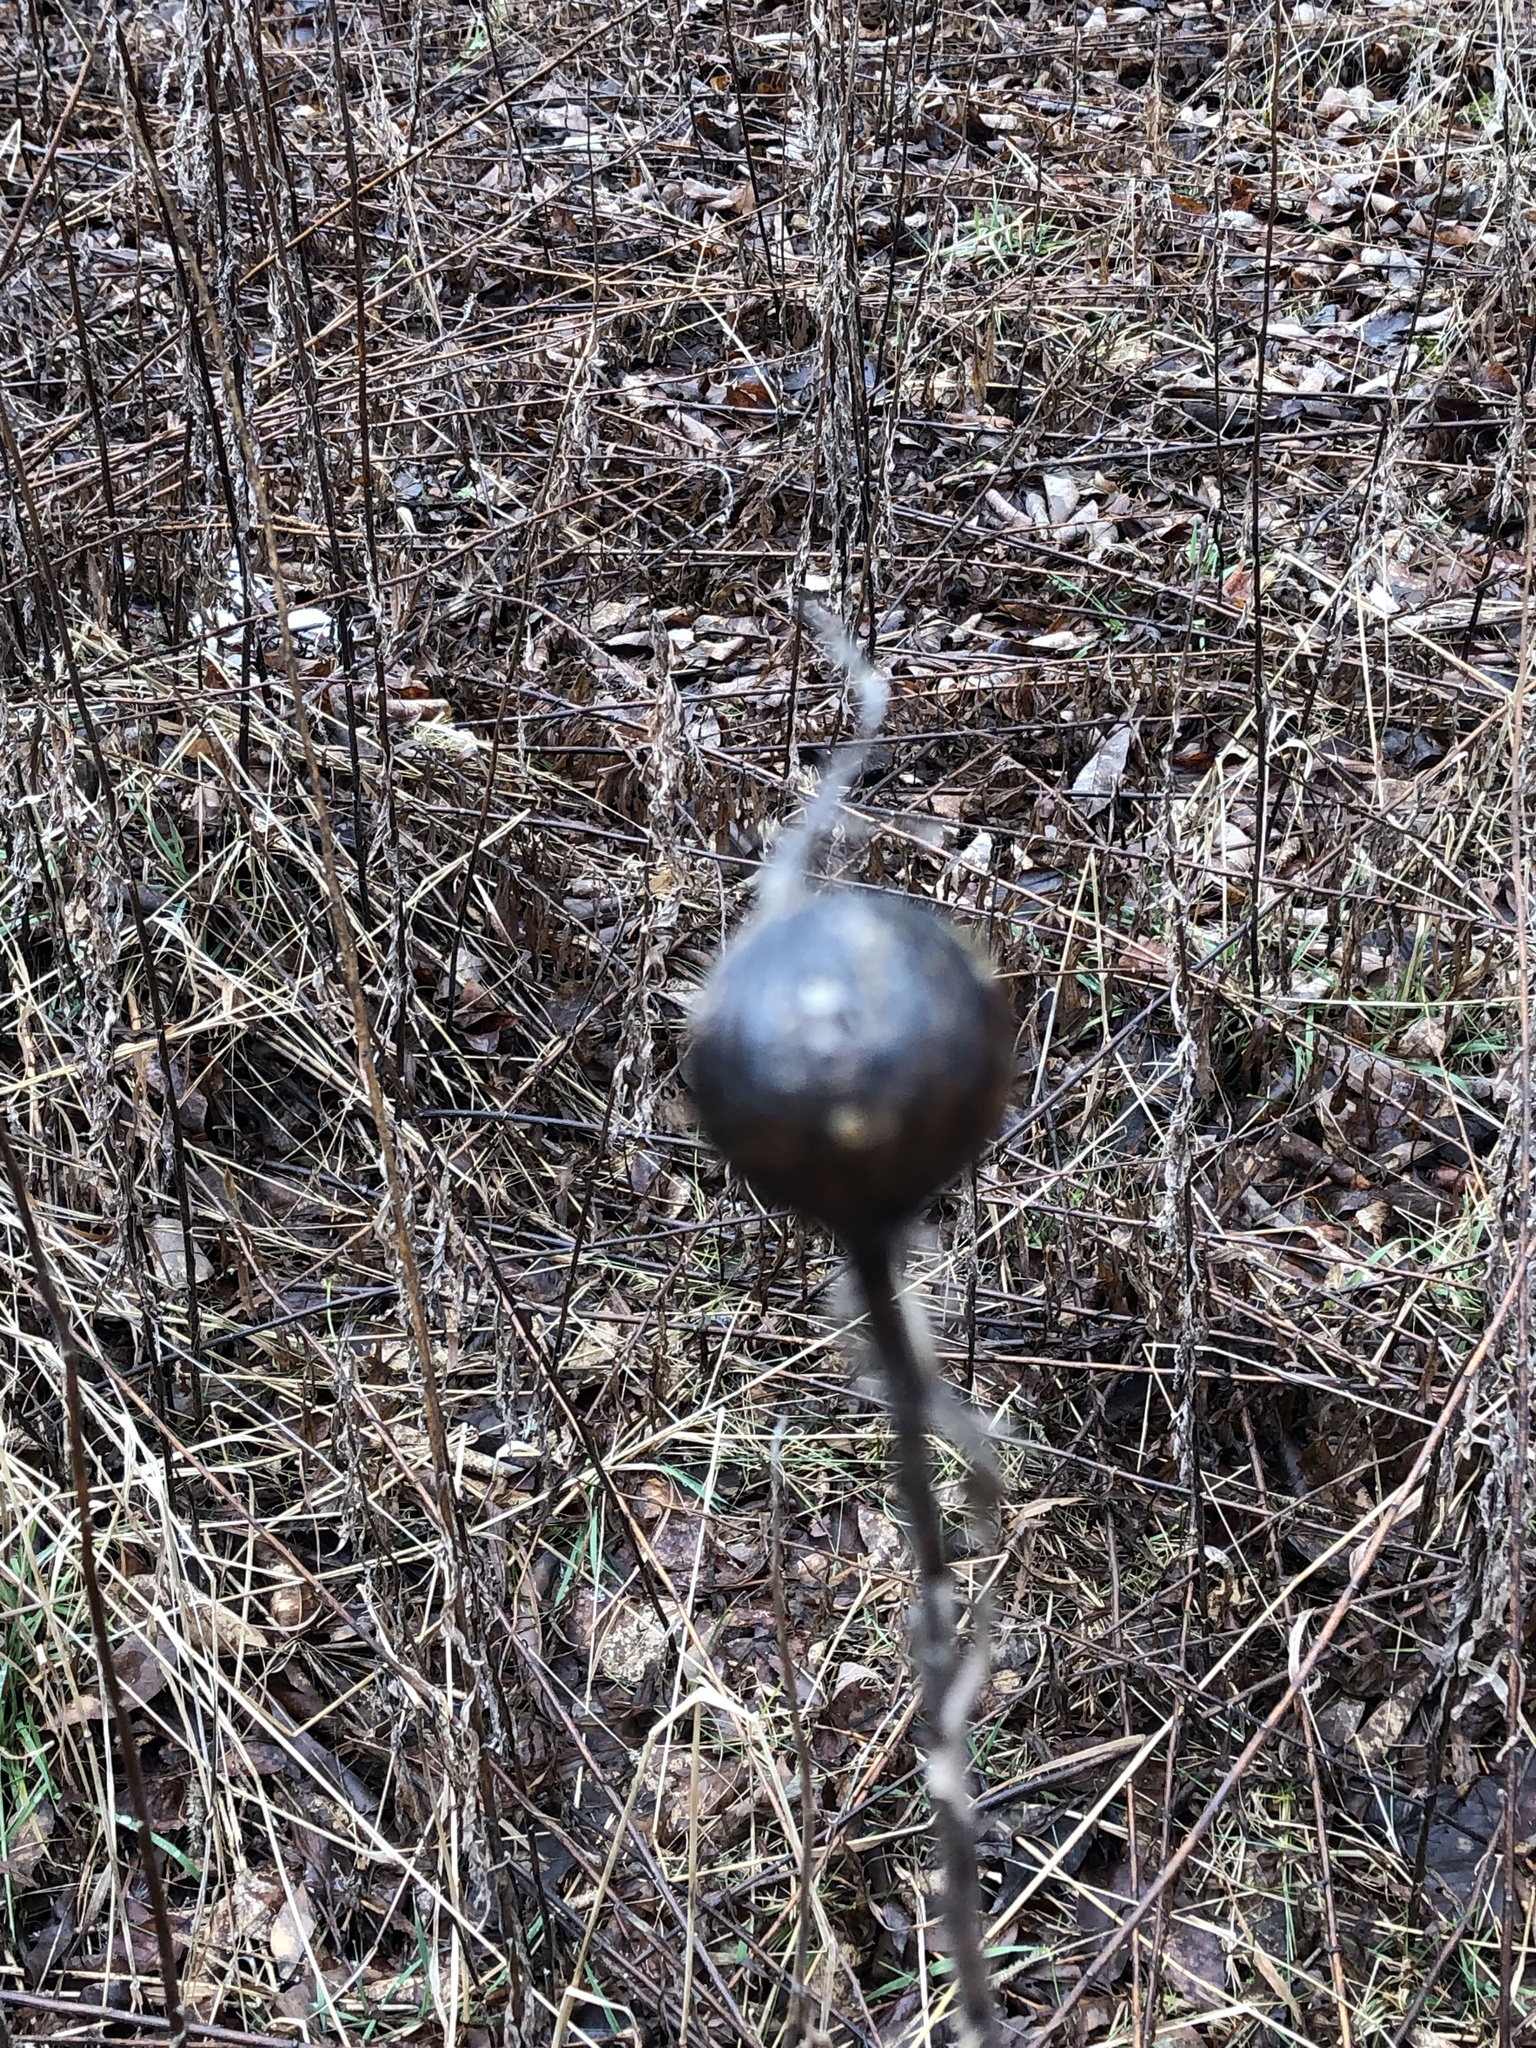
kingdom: Animalia
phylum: Arthropoda
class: Insecta
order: Diptera
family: Tephritidae
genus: Eurosta
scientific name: Eurosta solidaginis
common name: Goldenrod gall fly
